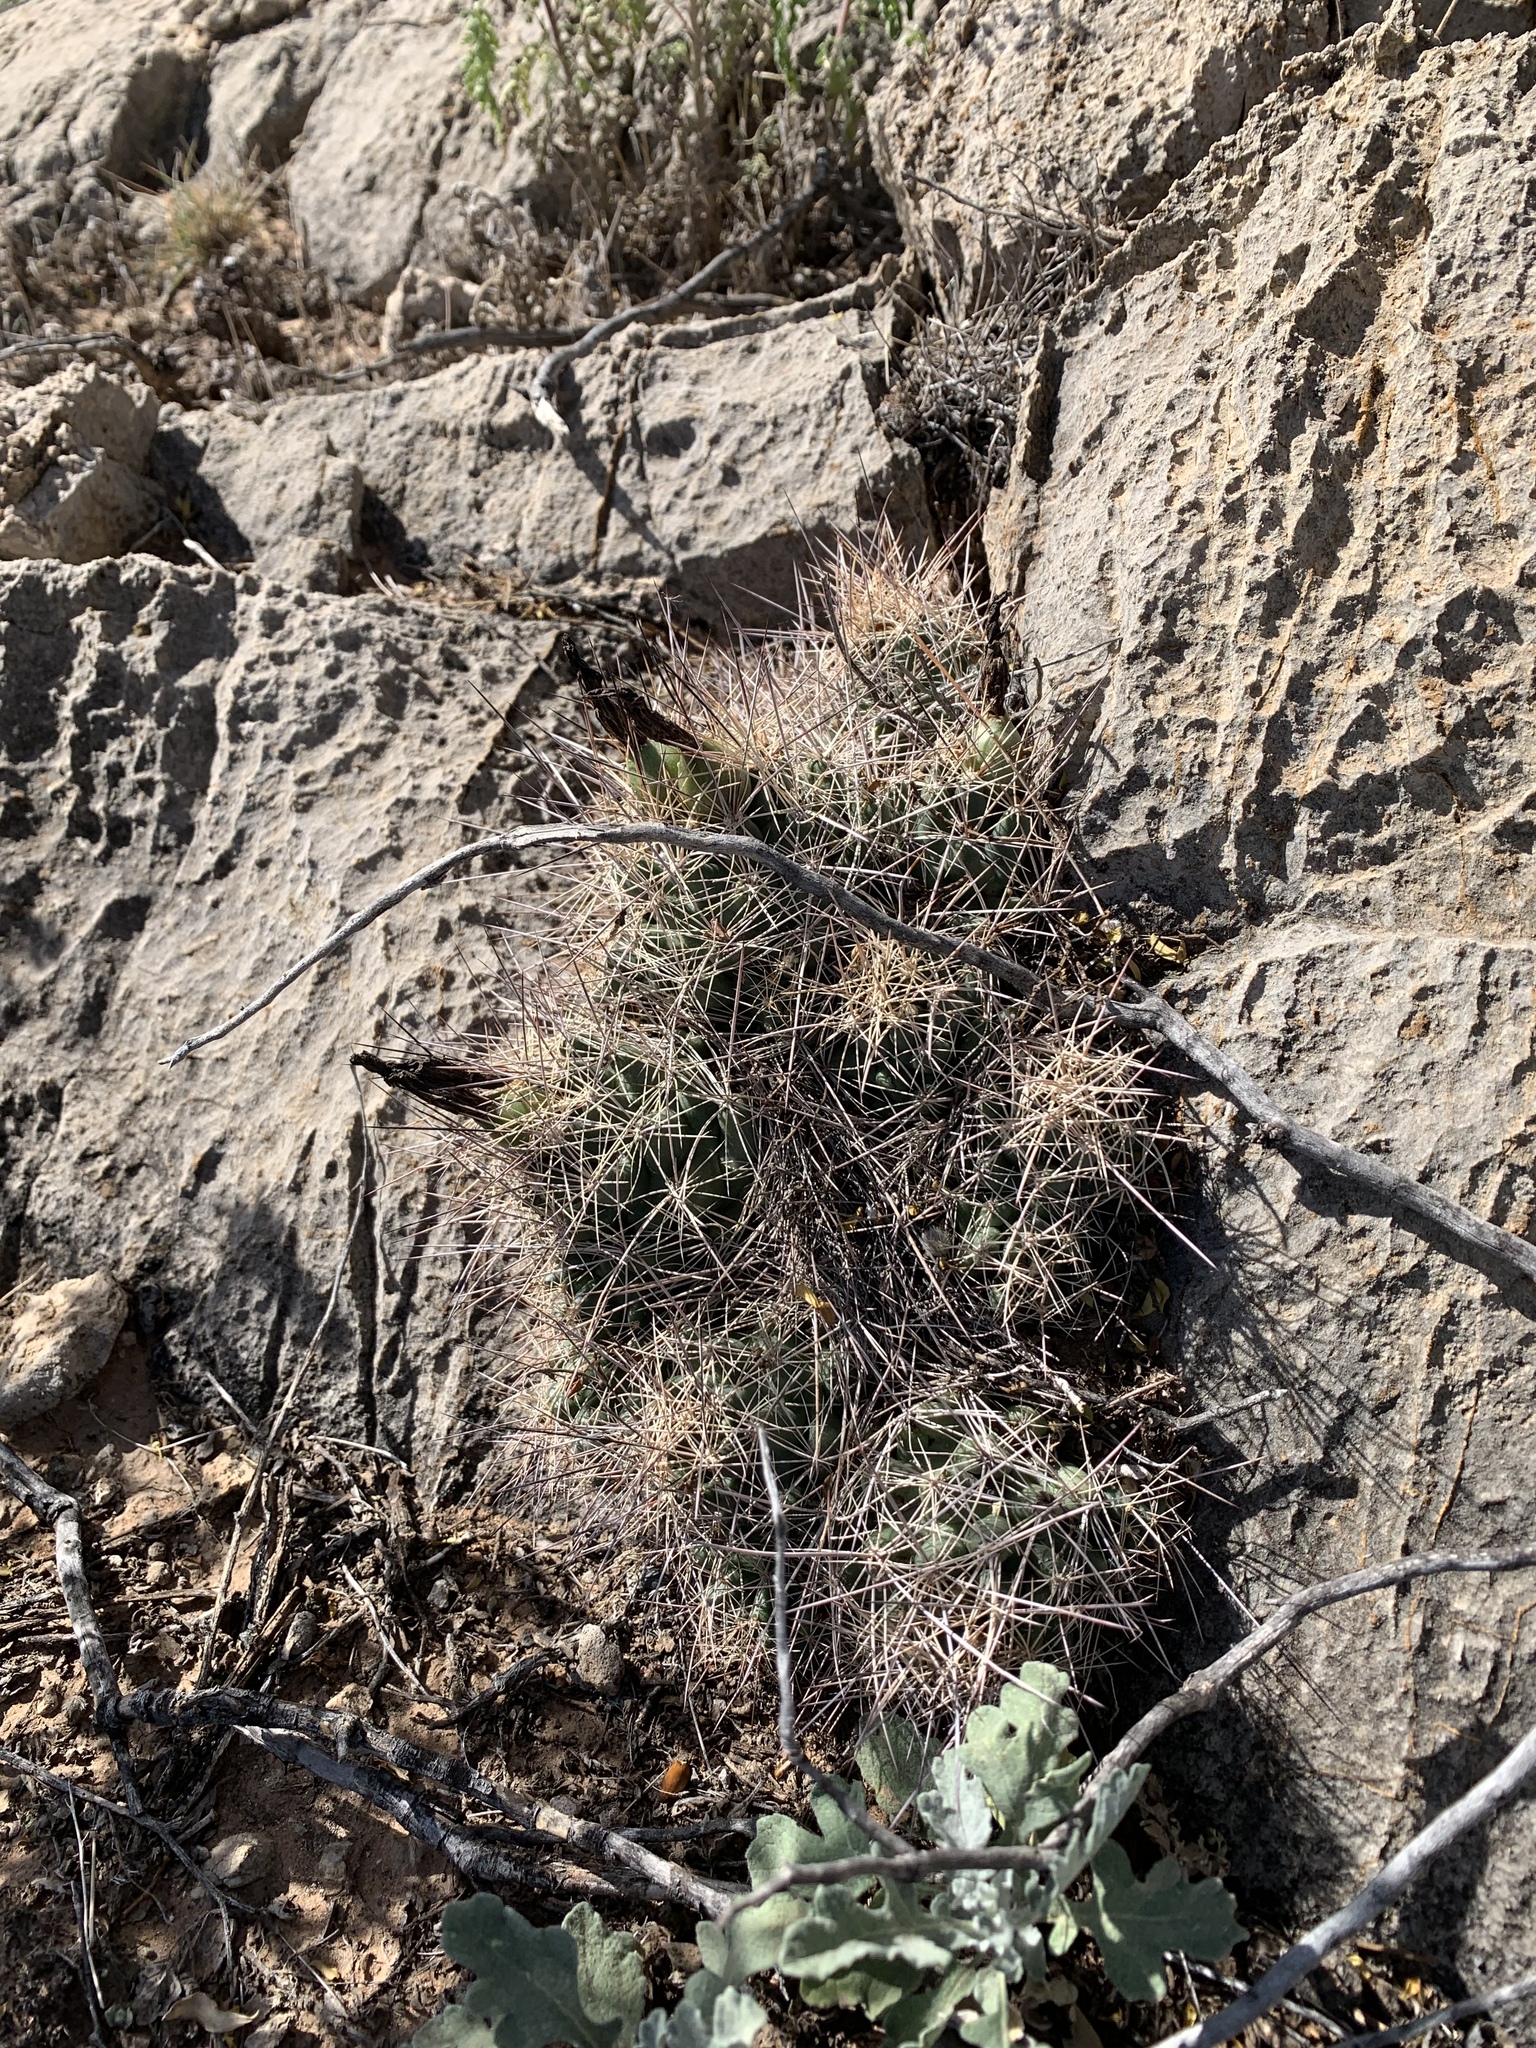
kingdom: Plantae
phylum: Tracheophyta
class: Magnoliopsida
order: Caryophyllales
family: Cactaceae
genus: Coryphantha
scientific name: Coryphantha macromeris
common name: Nipple beehive cactus
